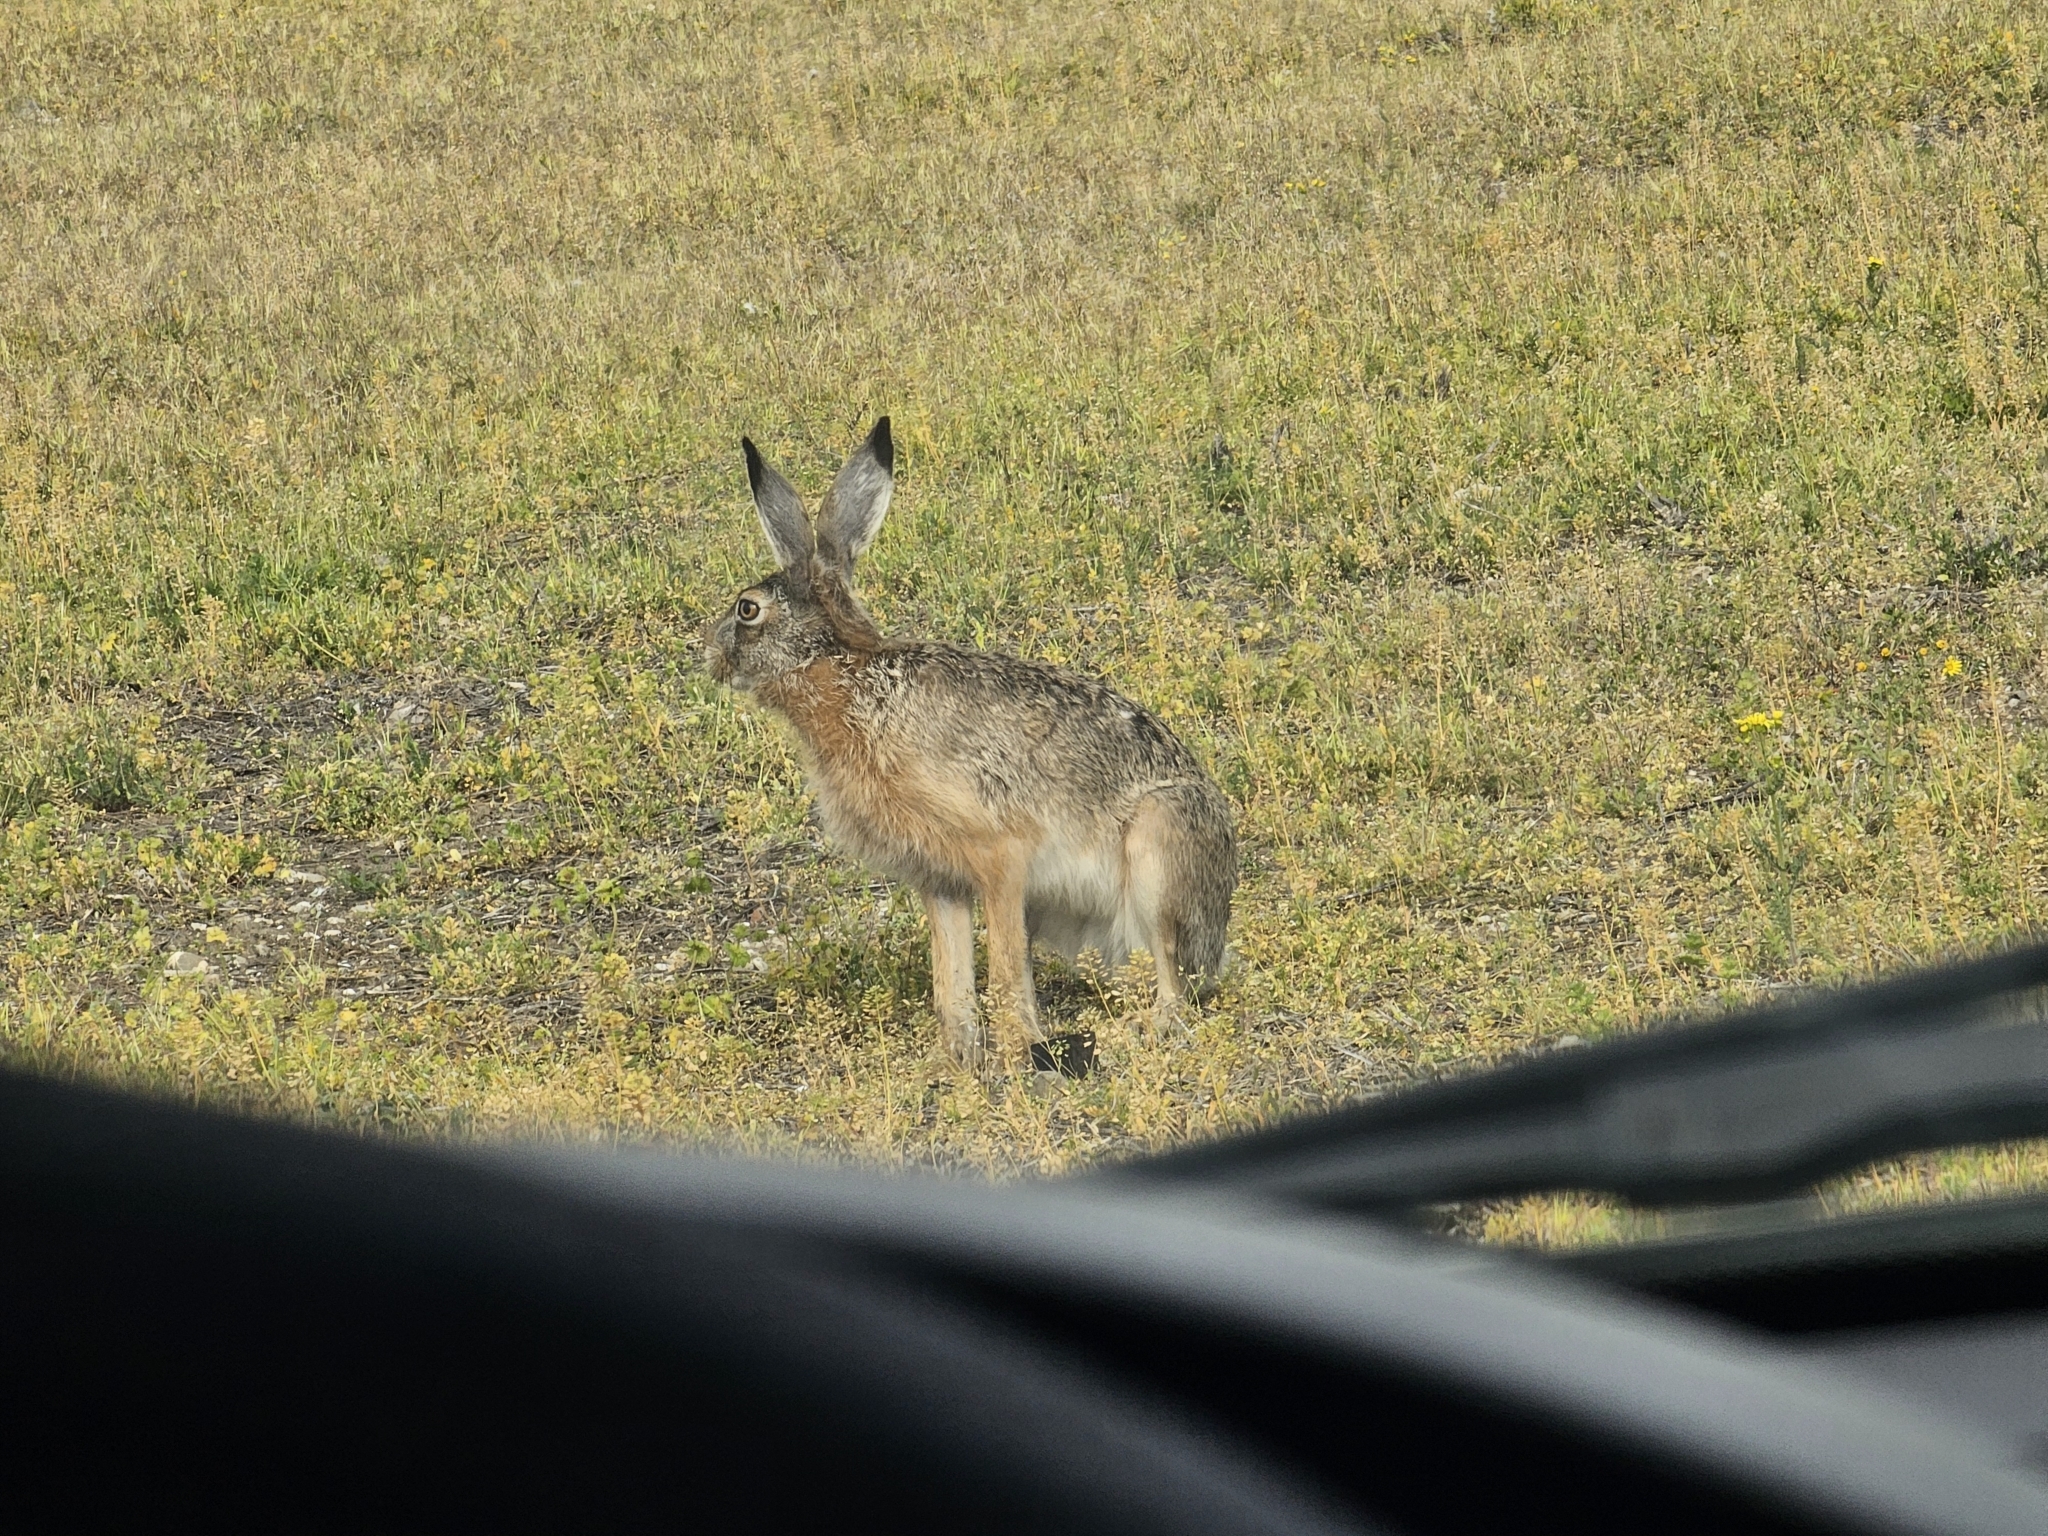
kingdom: Animalia
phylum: Chordata
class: Mammalia
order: Lagomorpha
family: Leporidae
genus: Lepus
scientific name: Lepus europaeus
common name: European hare
